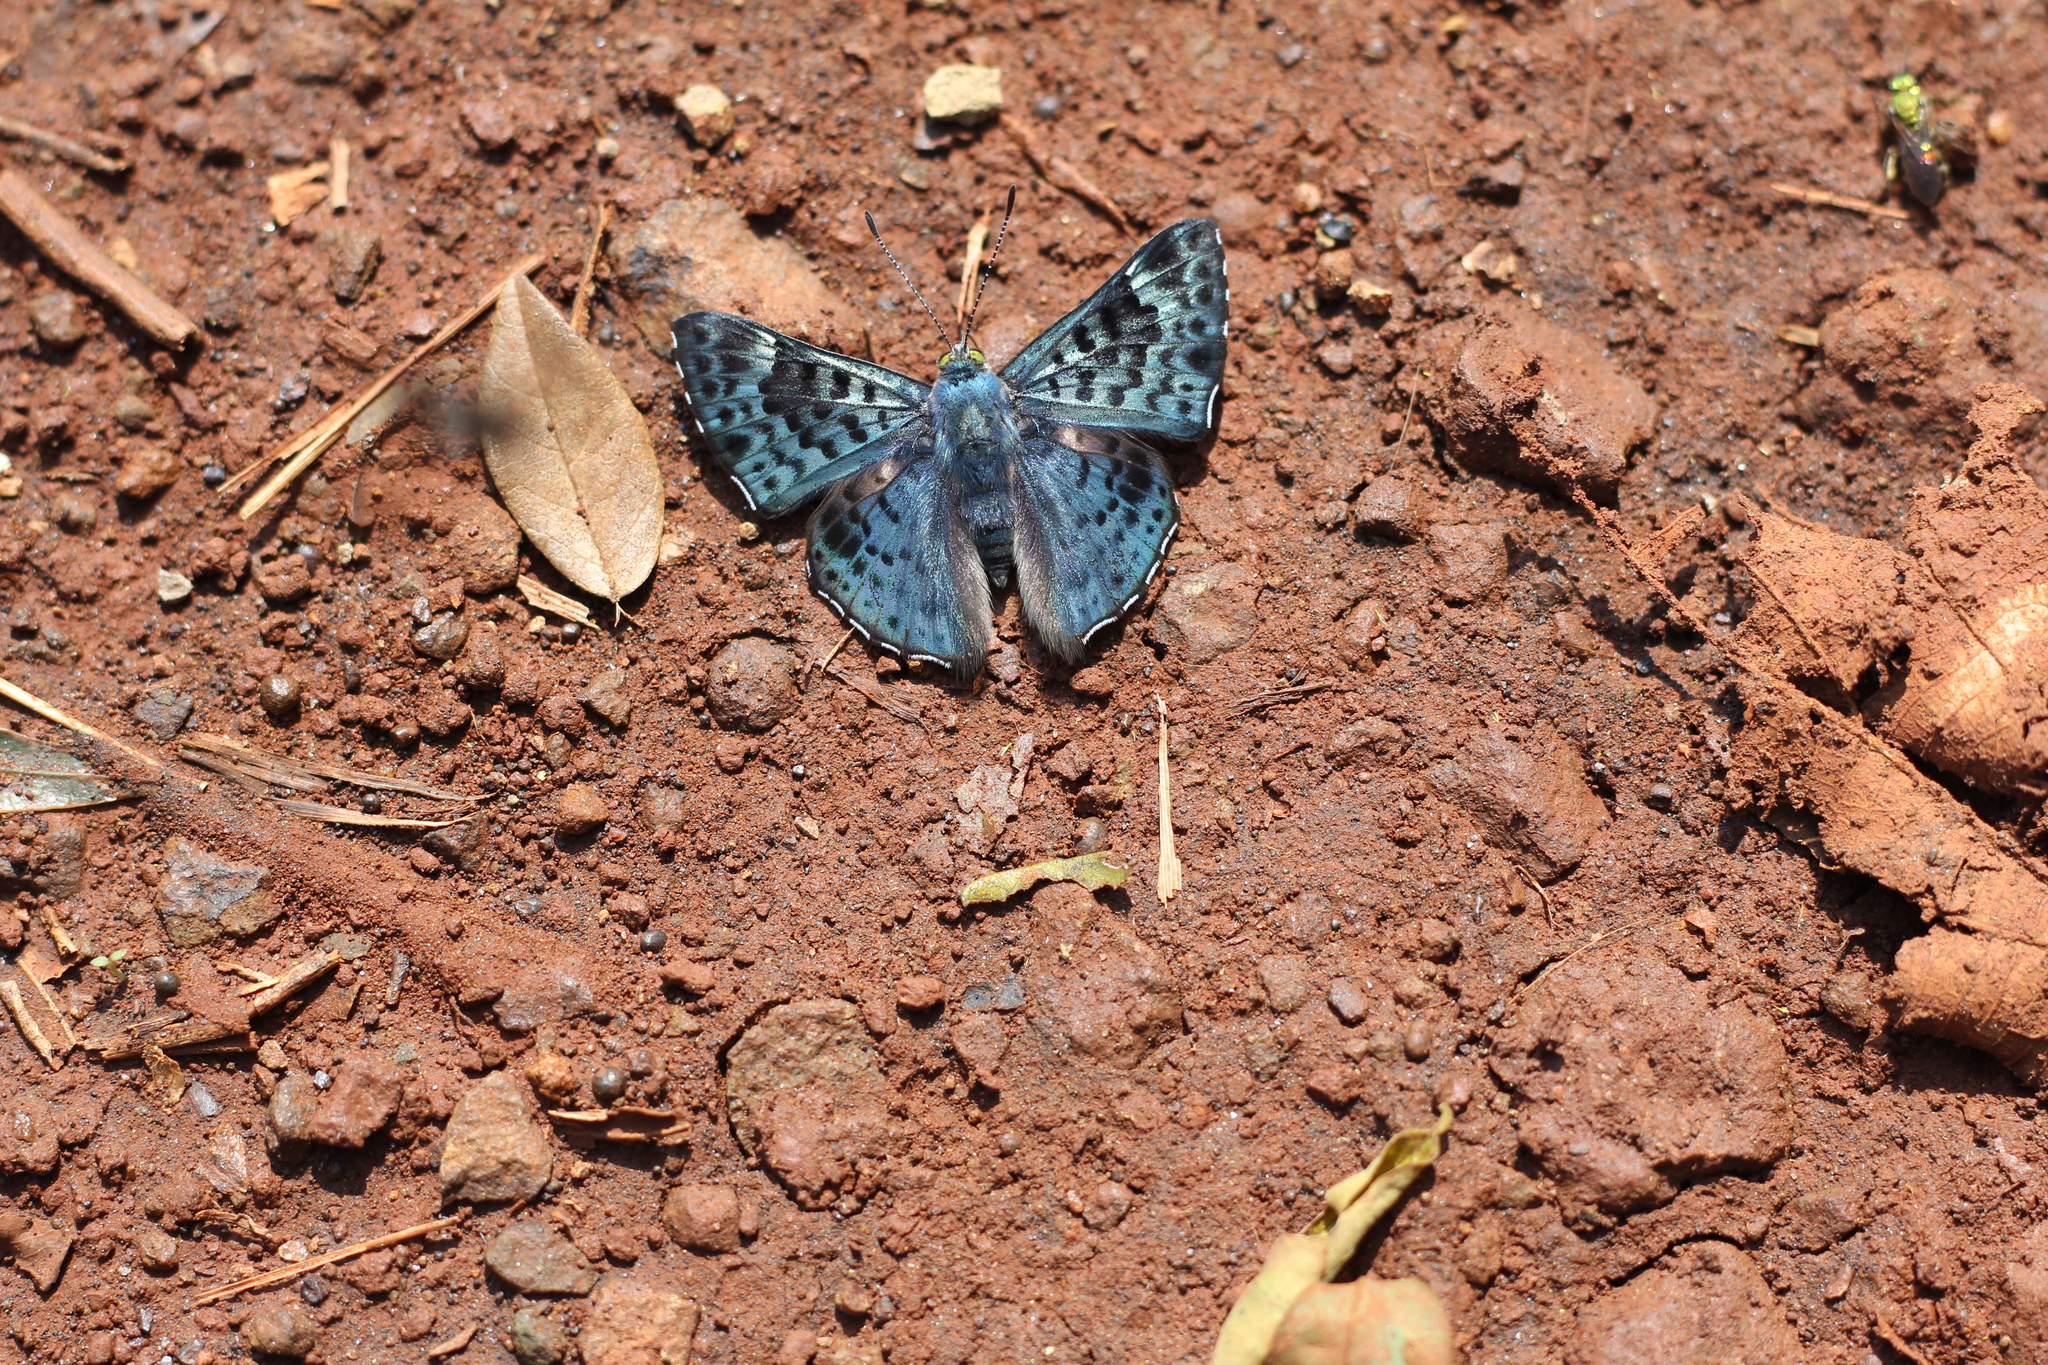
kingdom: Animalia
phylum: Arthropoda
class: Insecta
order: Lepidoptera
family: Riodinidae
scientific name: Riodinidae
